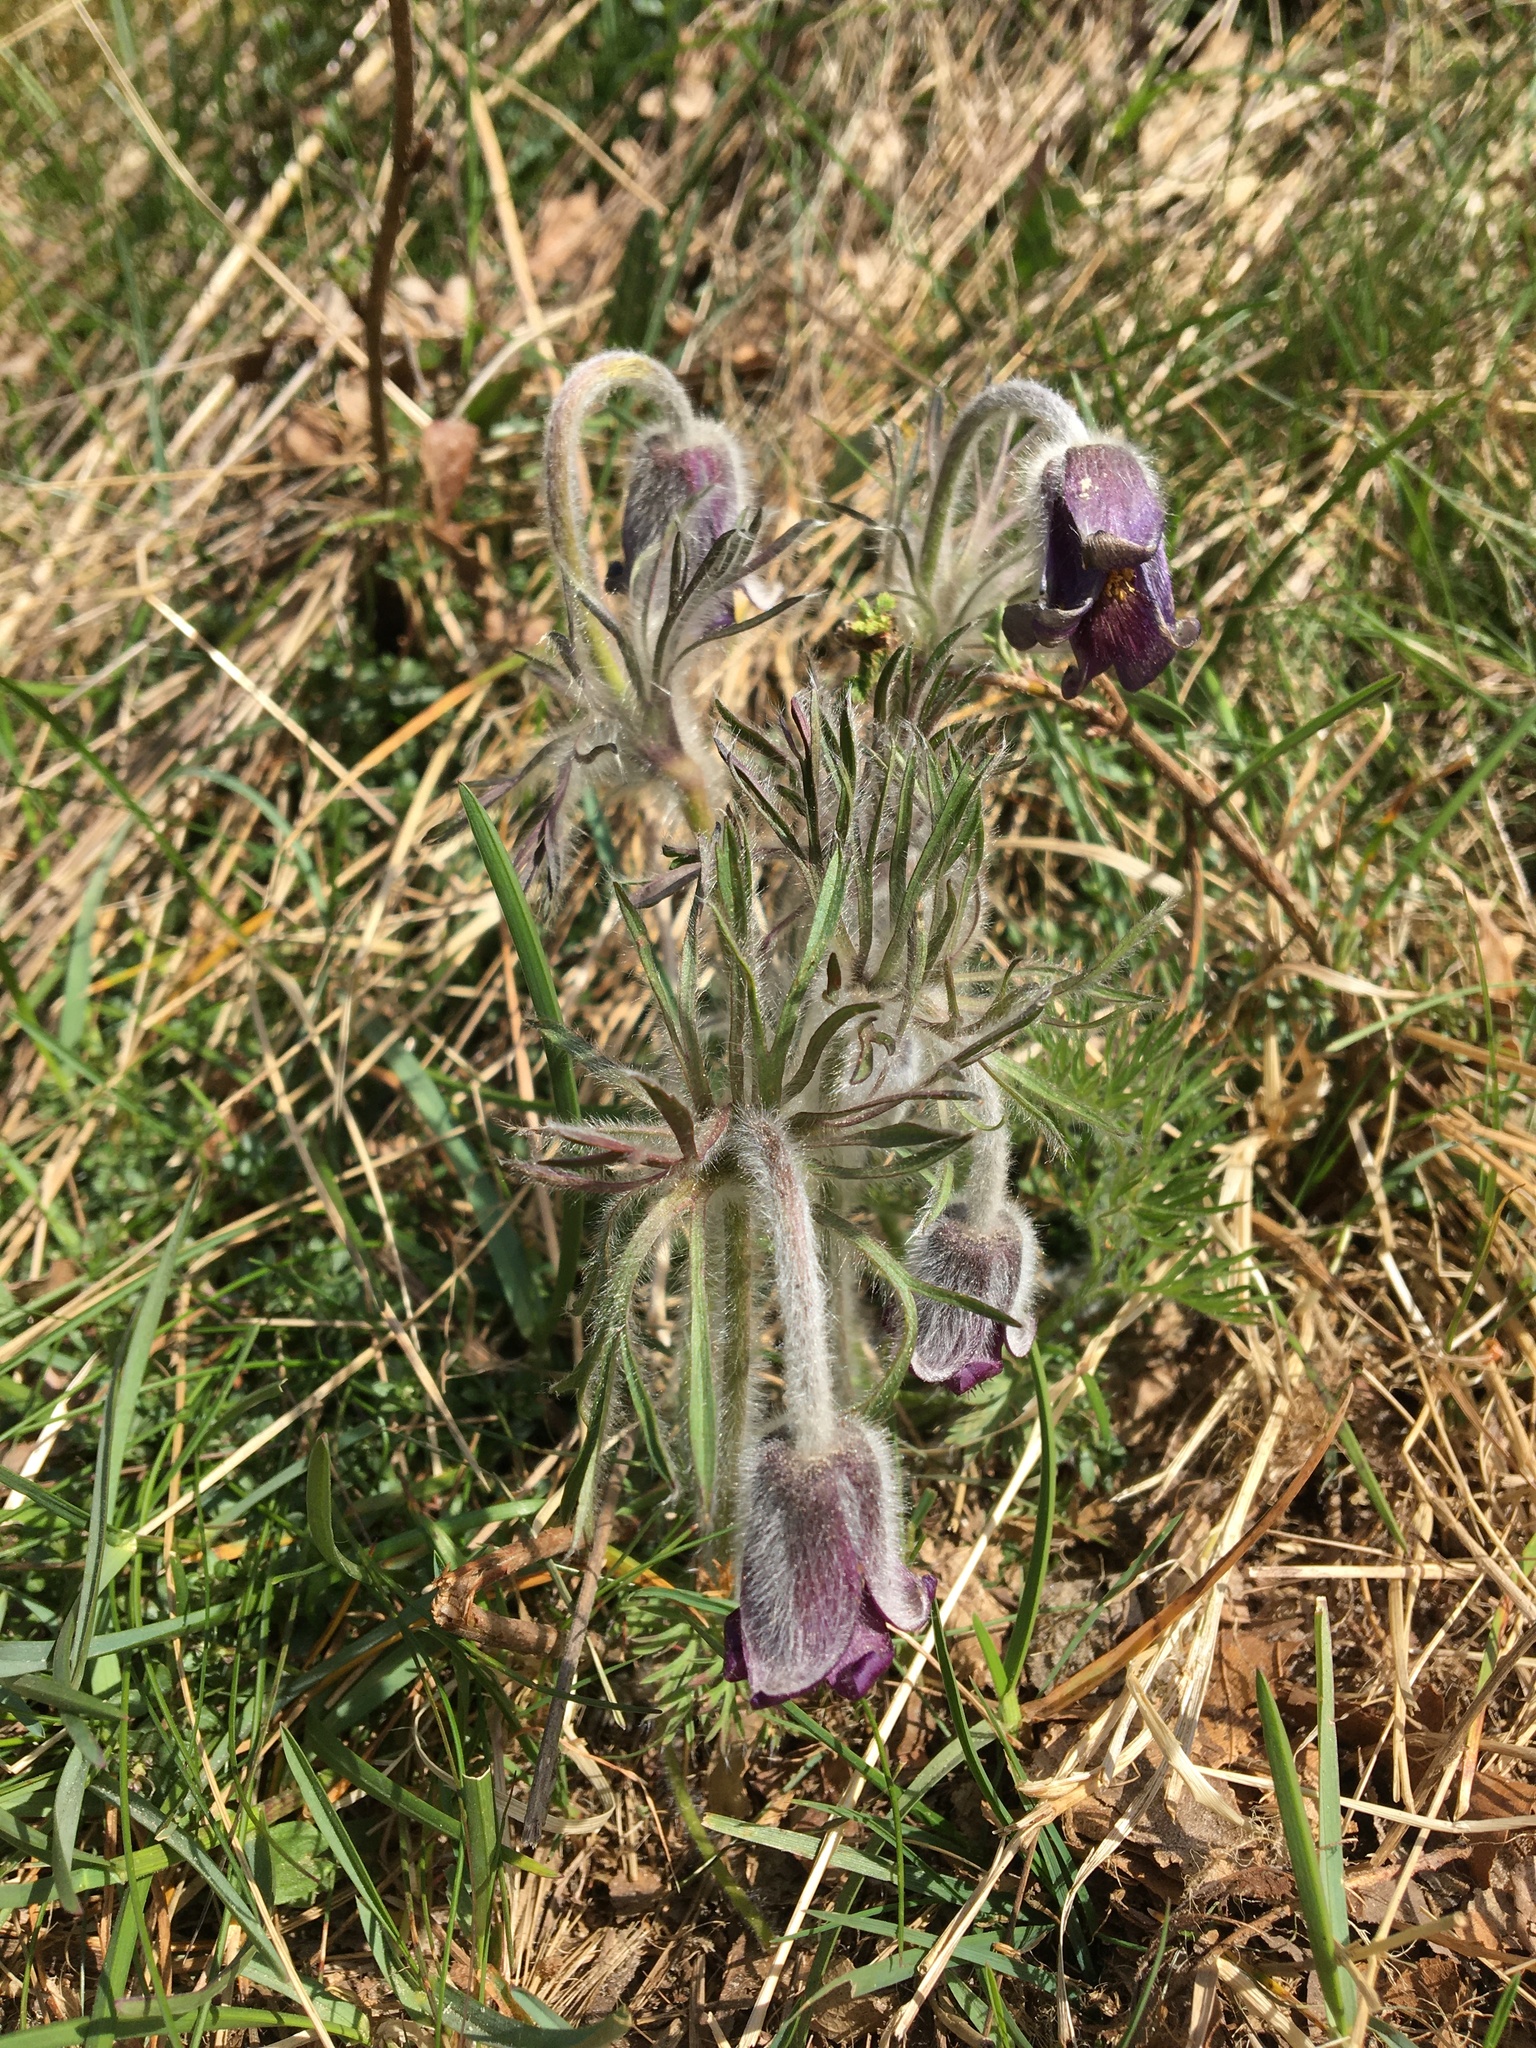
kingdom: Plantae
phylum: Tracheophyta
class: Magnoliopsida
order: Ranunculales
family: Ranunculaceae
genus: Pulsatilla
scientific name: Pulsatilla pratensis
